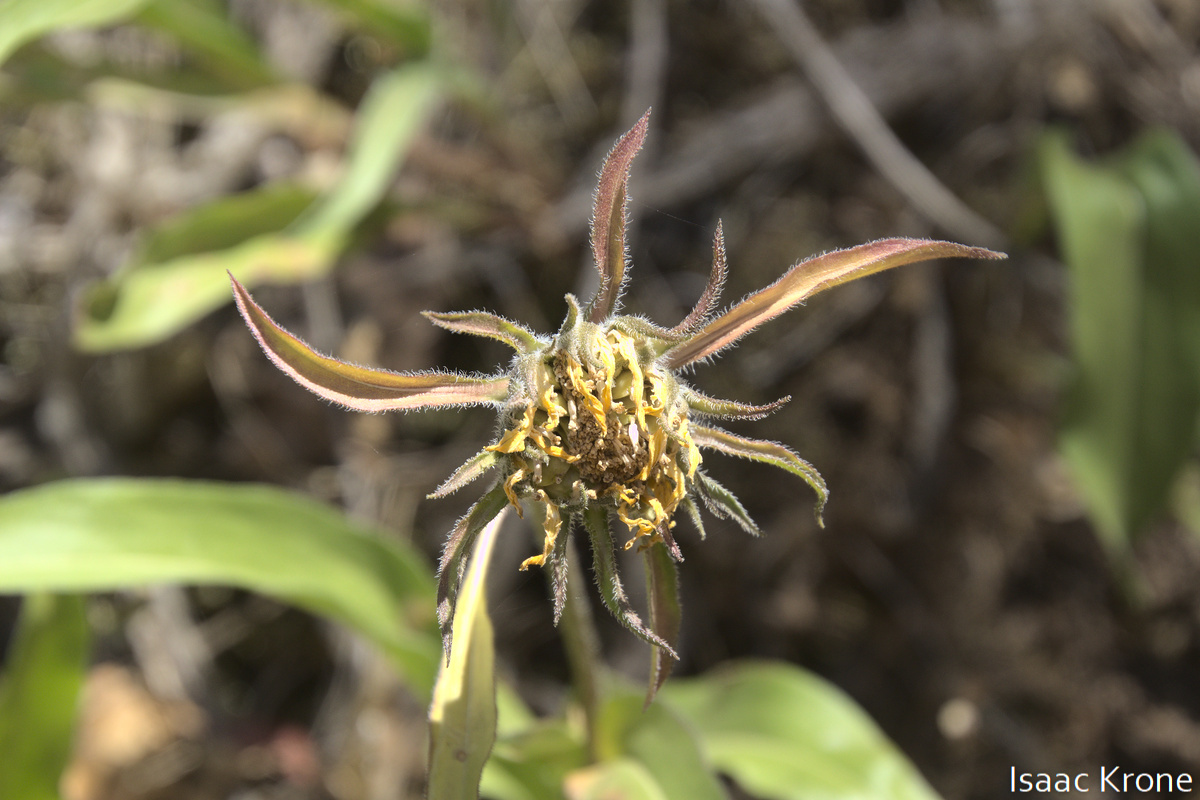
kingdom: Plantae
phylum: Tracheophyta
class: Magnoliopsida
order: Asterales
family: Asteraceae
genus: Helianthella
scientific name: Helianthella castanea
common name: Diablo helianthella
